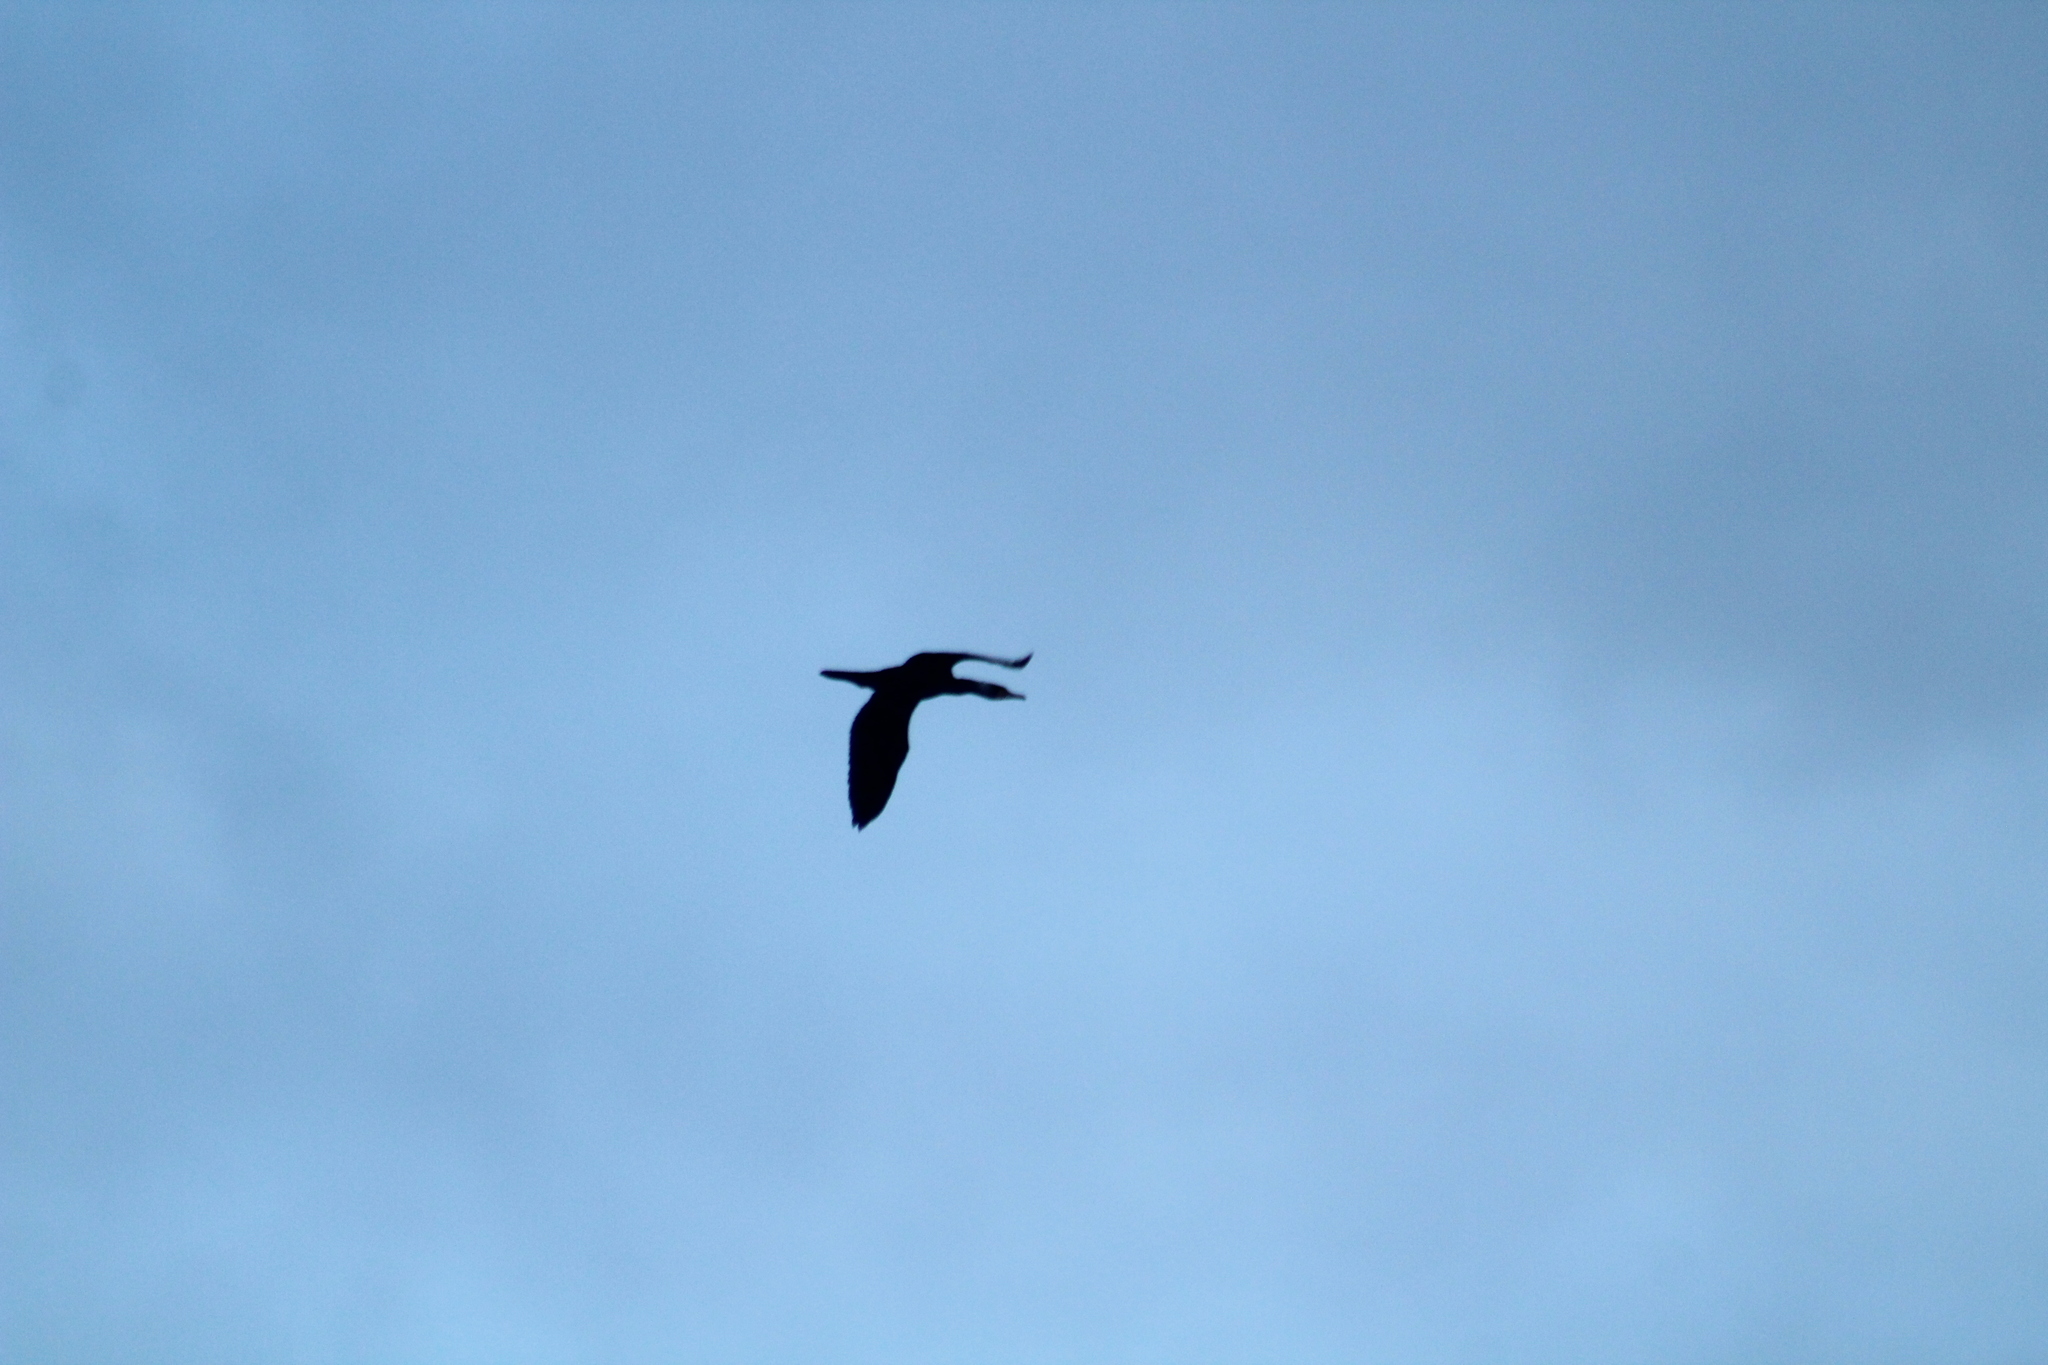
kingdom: Animalia
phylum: Chordata
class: Aves
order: Suliformes
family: Phalacrocoracidae
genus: Phalacrocorax
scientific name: Phalacrocorax carbo
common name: Great cormorant
